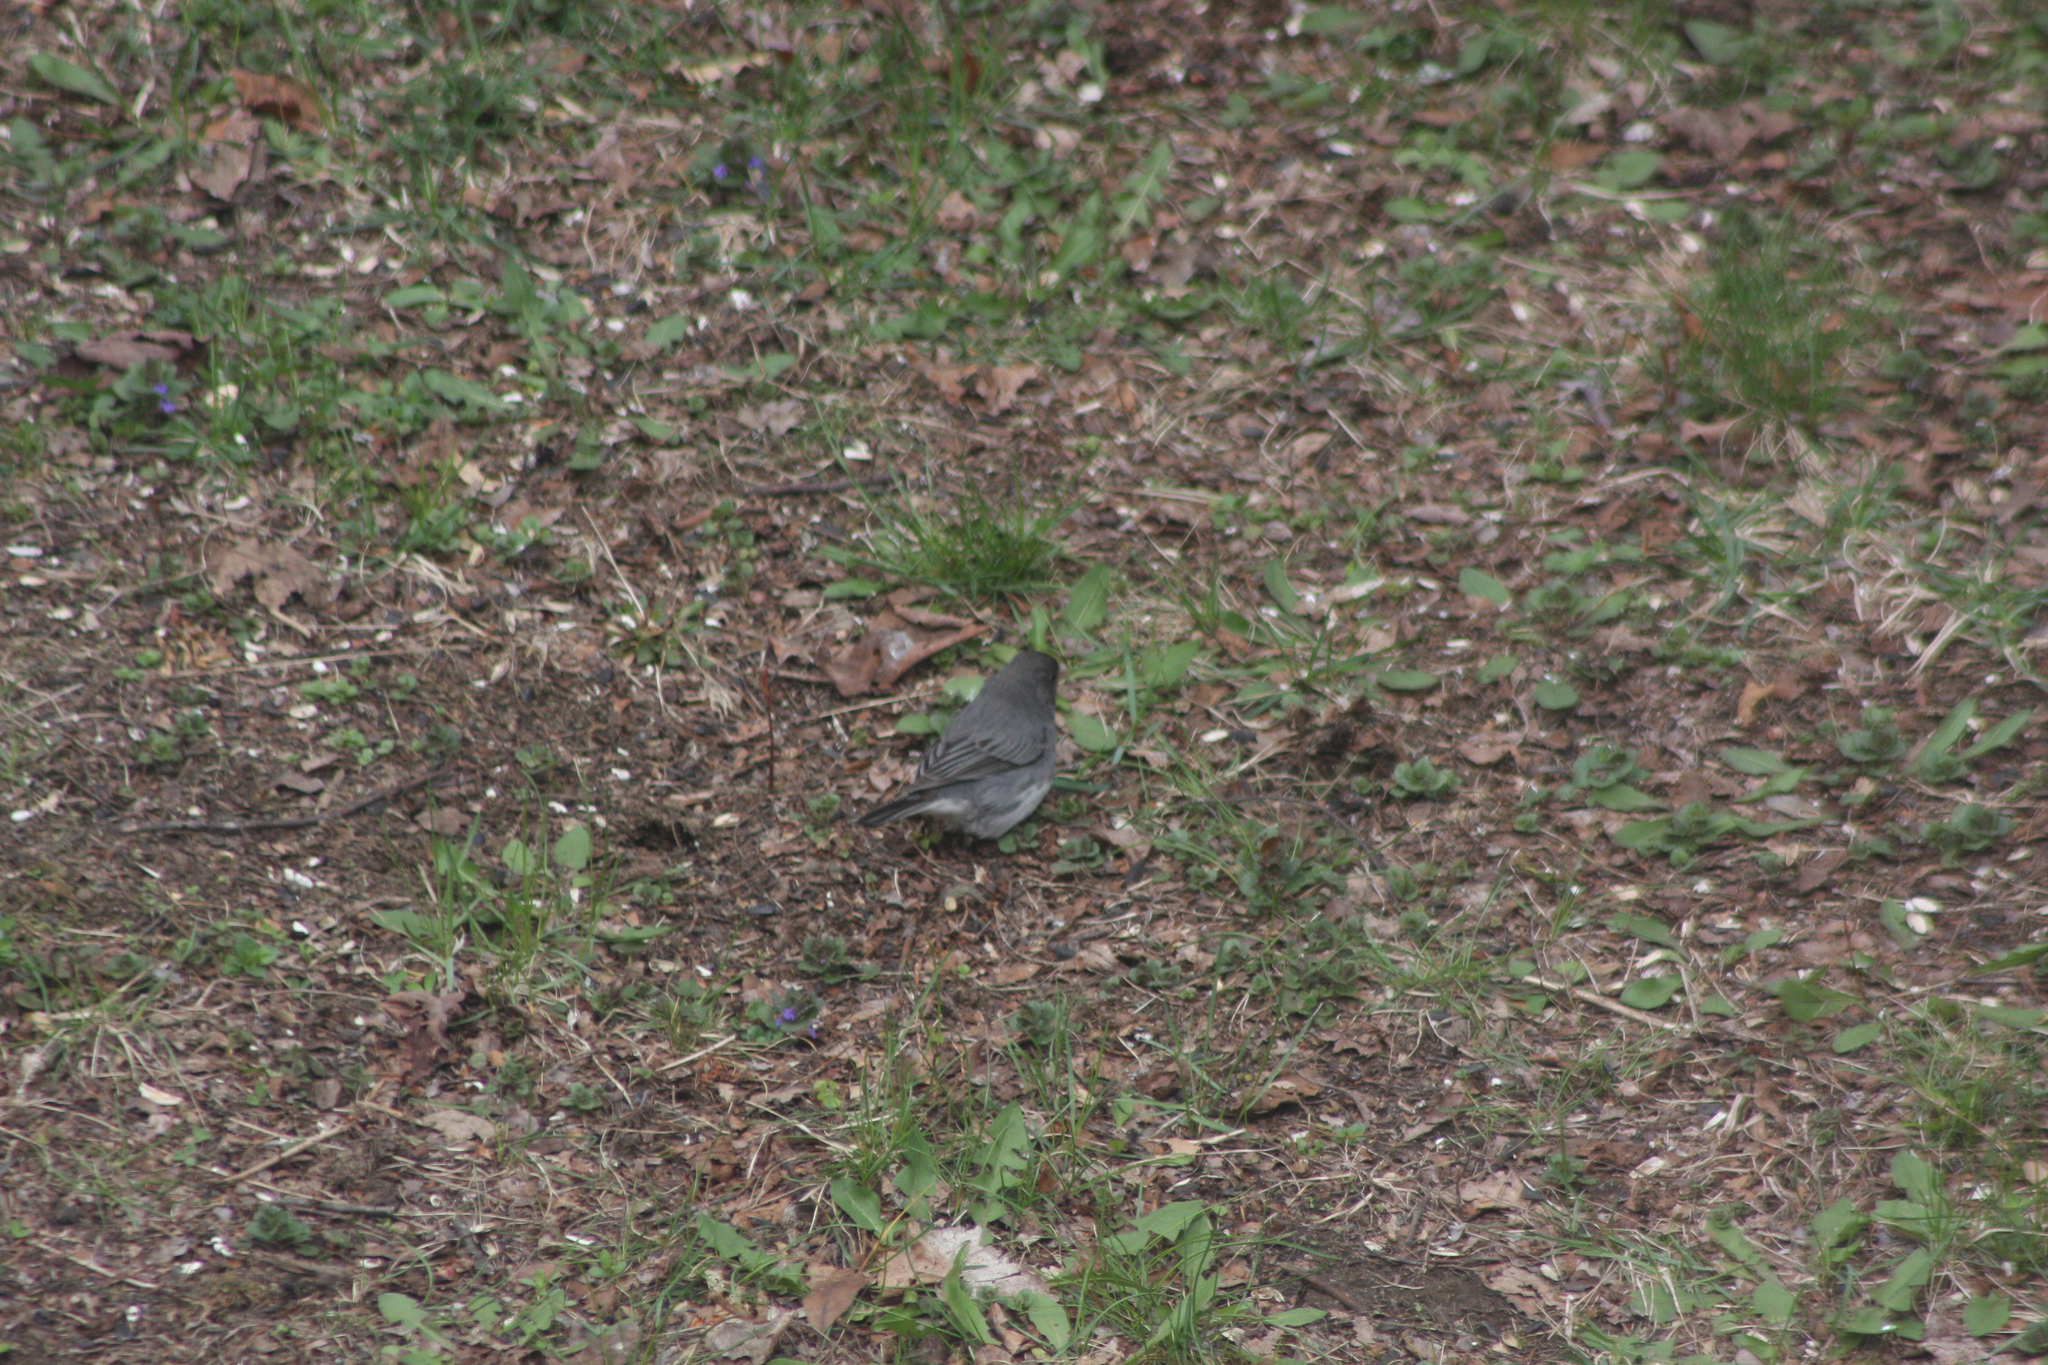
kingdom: Animalia
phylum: Chordata
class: Aves
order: Passeriformes
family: Passerellidae
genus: Junco
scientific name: Junco hyemalis
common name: Dark-eyed junco
